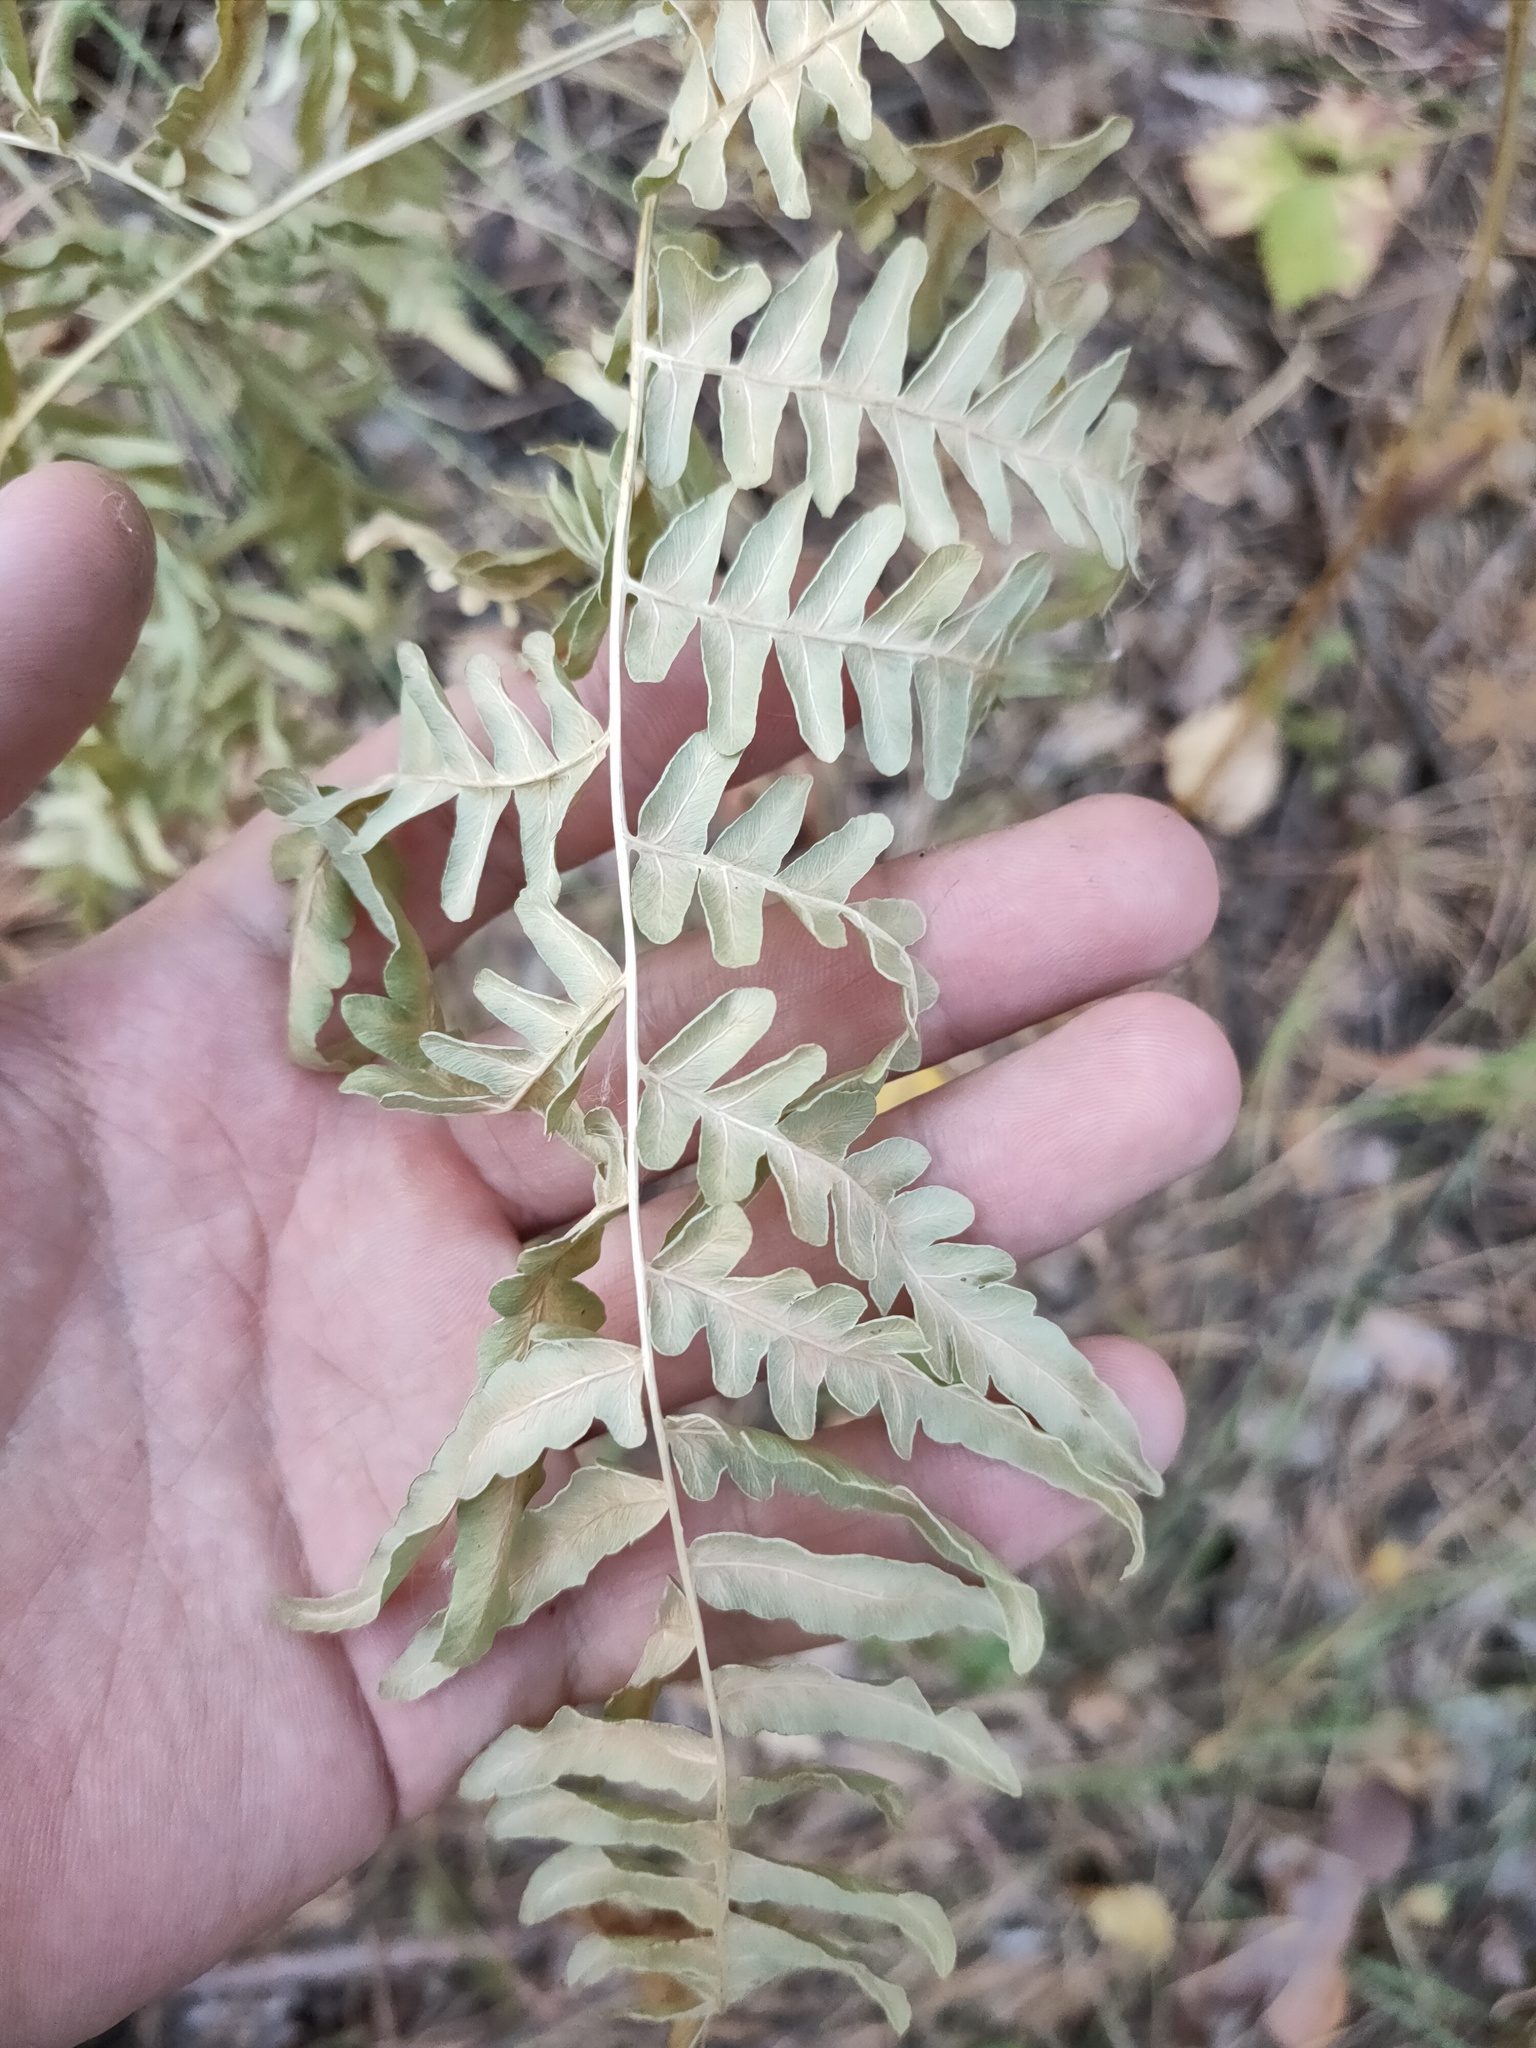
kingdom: Plantae
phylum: Tracheophyta
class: Polypodiopsida
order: Polypodiales
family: Dennstaedtiaceae
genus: Pteridium
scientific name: Pteridium aquilinum
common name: Bracken
